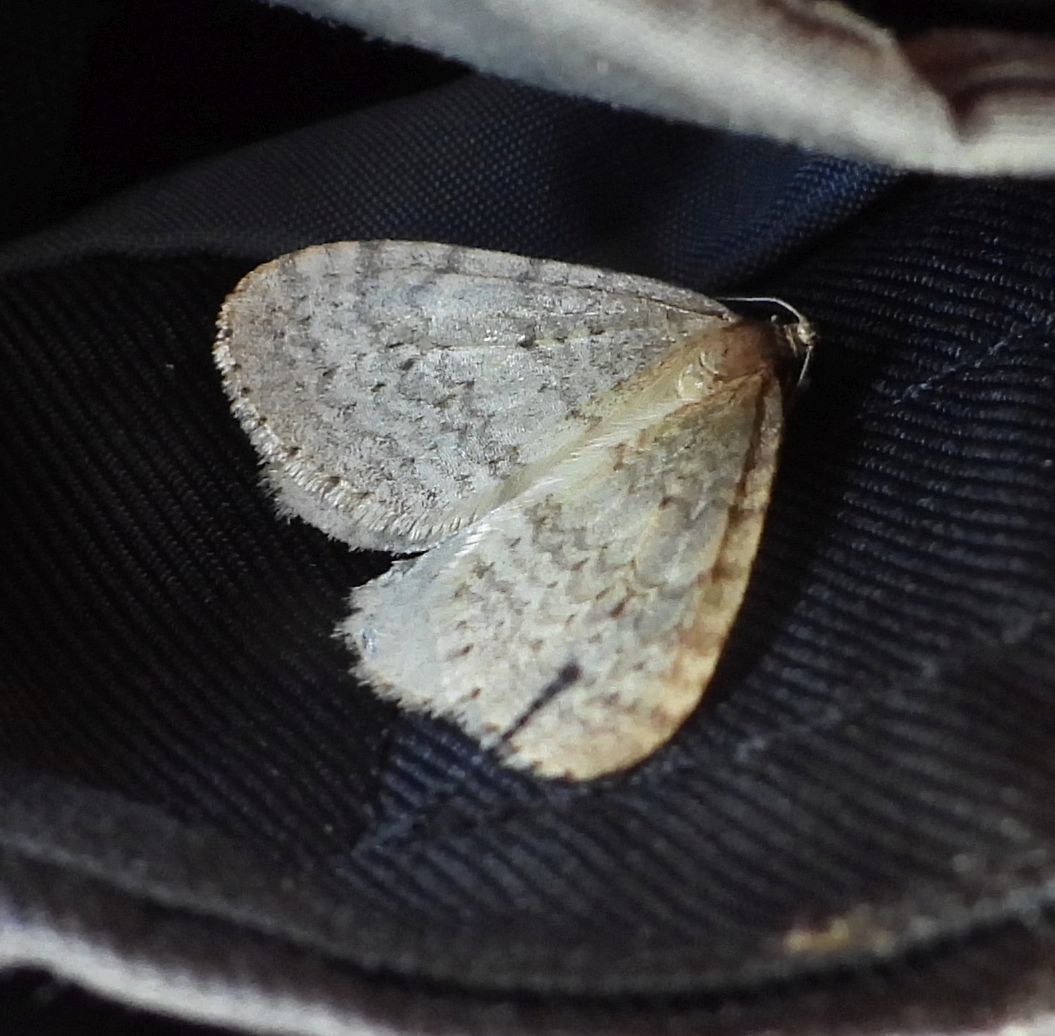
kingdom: Animalia
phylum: Arthropoda
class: Insecta
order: Lepidoptera
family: Geometridae
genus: Operophtera
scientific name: Operophtera bruceata
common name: Bruce spanworm
